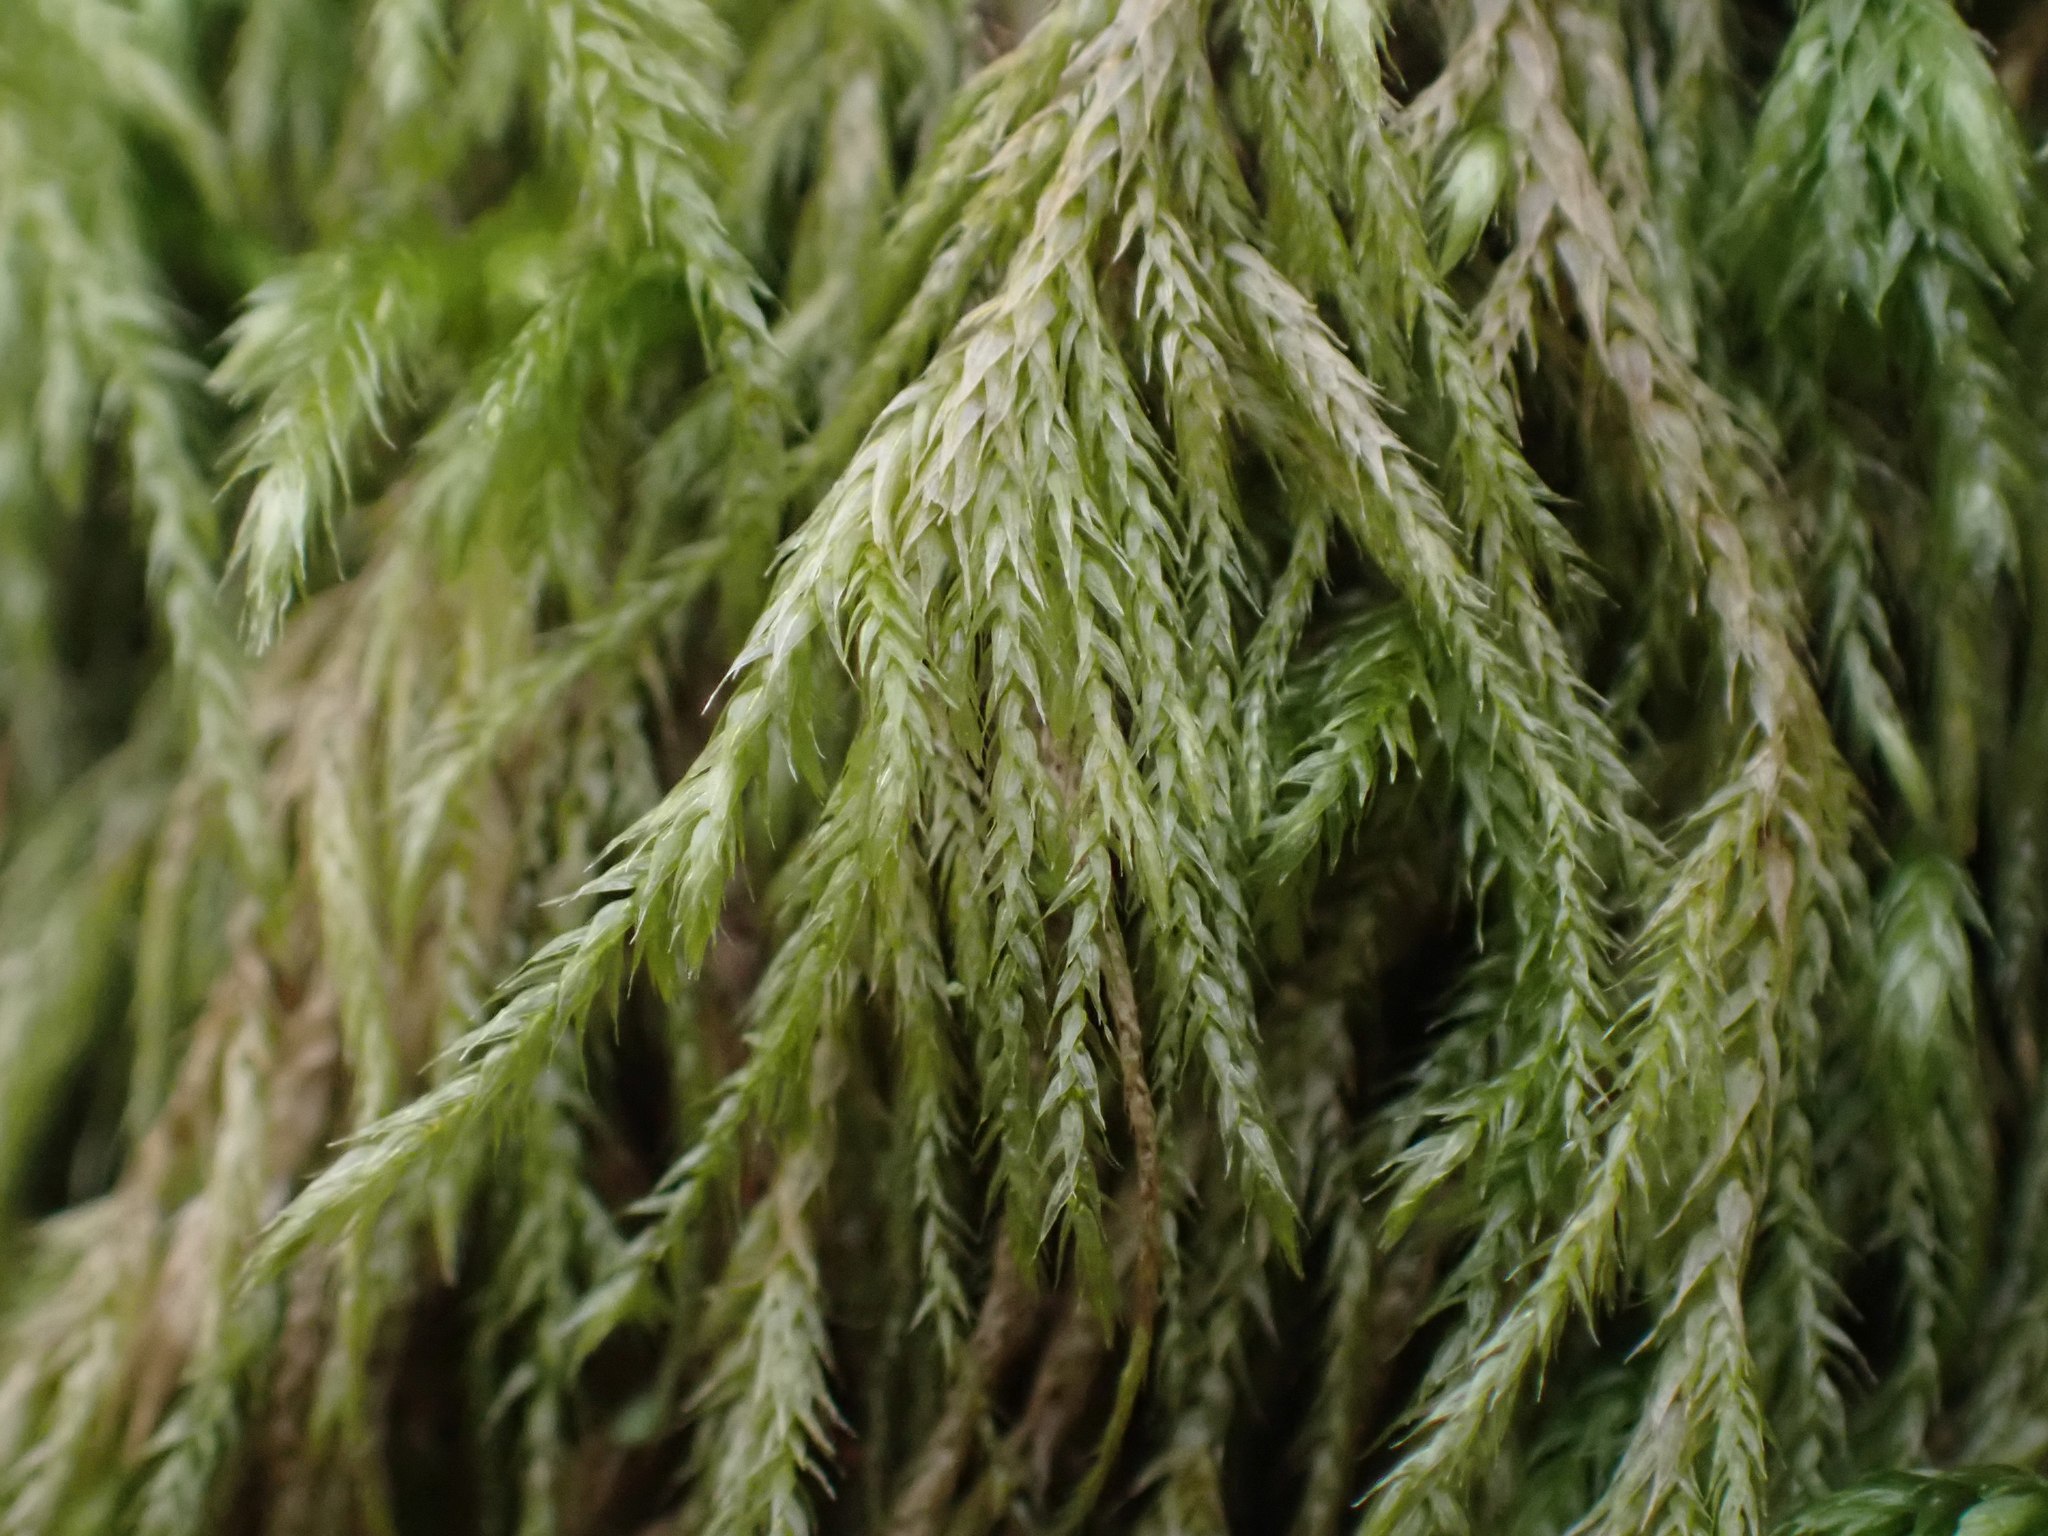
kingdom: Plantae
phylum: Bryophyta
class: Bryopsida
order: Hypnales
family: Lembophyllaceae
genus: Pseudisothecium
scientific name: Pseudisothecium stoloniferum
